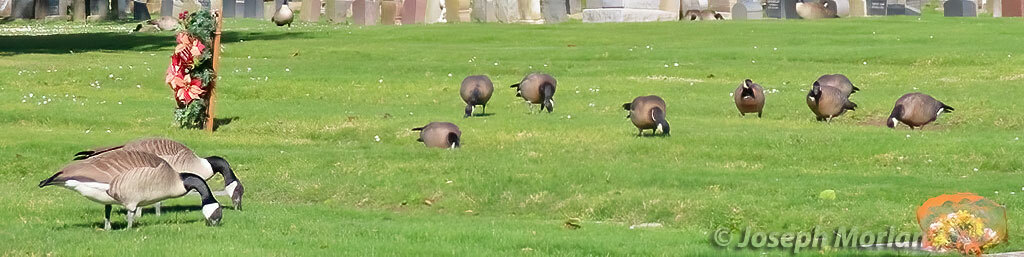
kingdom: Animalia
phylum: Chordata
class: Aves
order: Anseriformes
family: Anatidae
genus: Branta
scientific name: Branta hutchinsii
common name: Cackling goose
